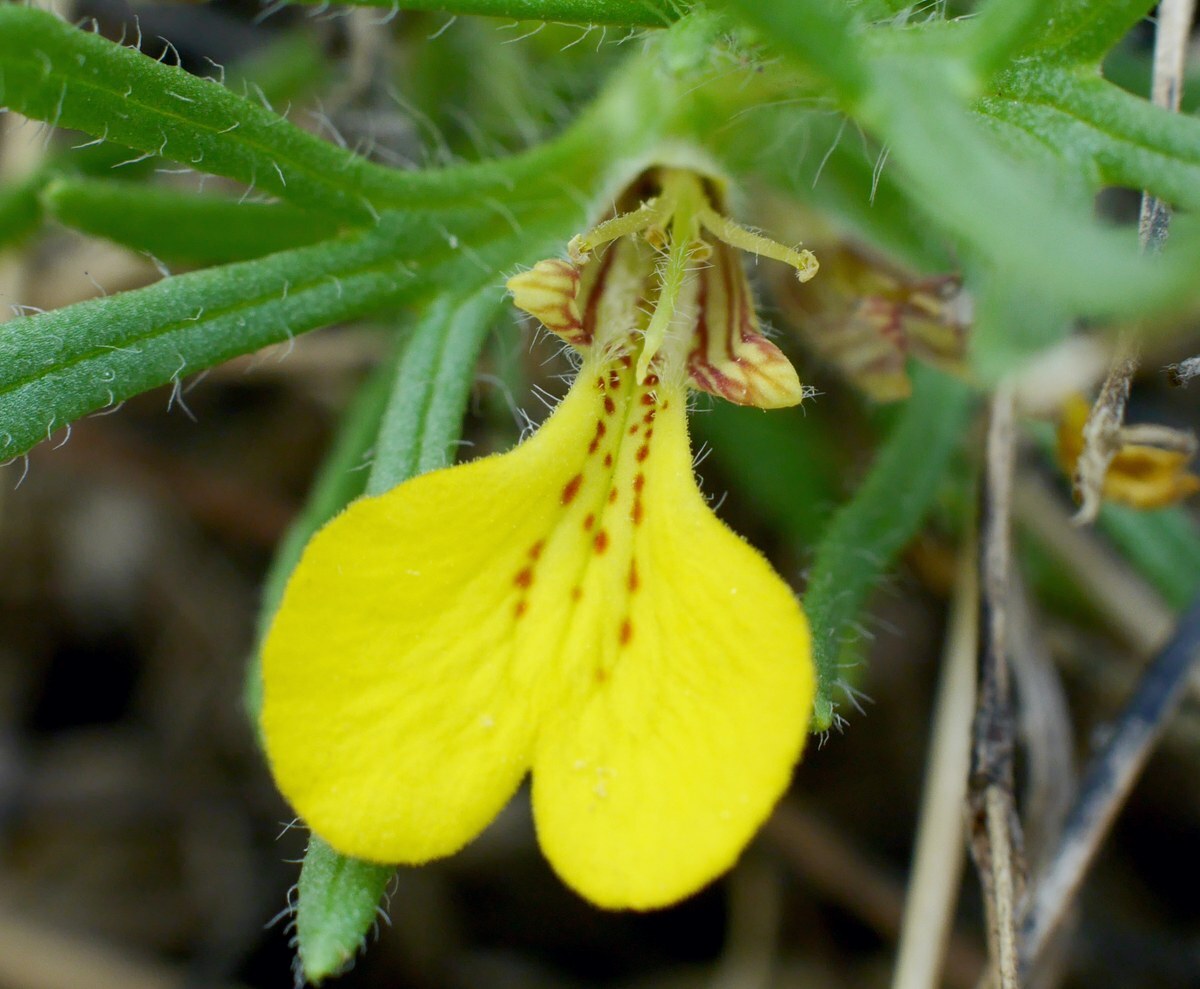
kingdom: Plantae
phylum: Tracheophyta
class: Magnoliopsida
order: Lamiales
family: Lamiaceae
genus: Ajuga
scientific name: Ajuga chamaepitys
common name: Ground-pine
